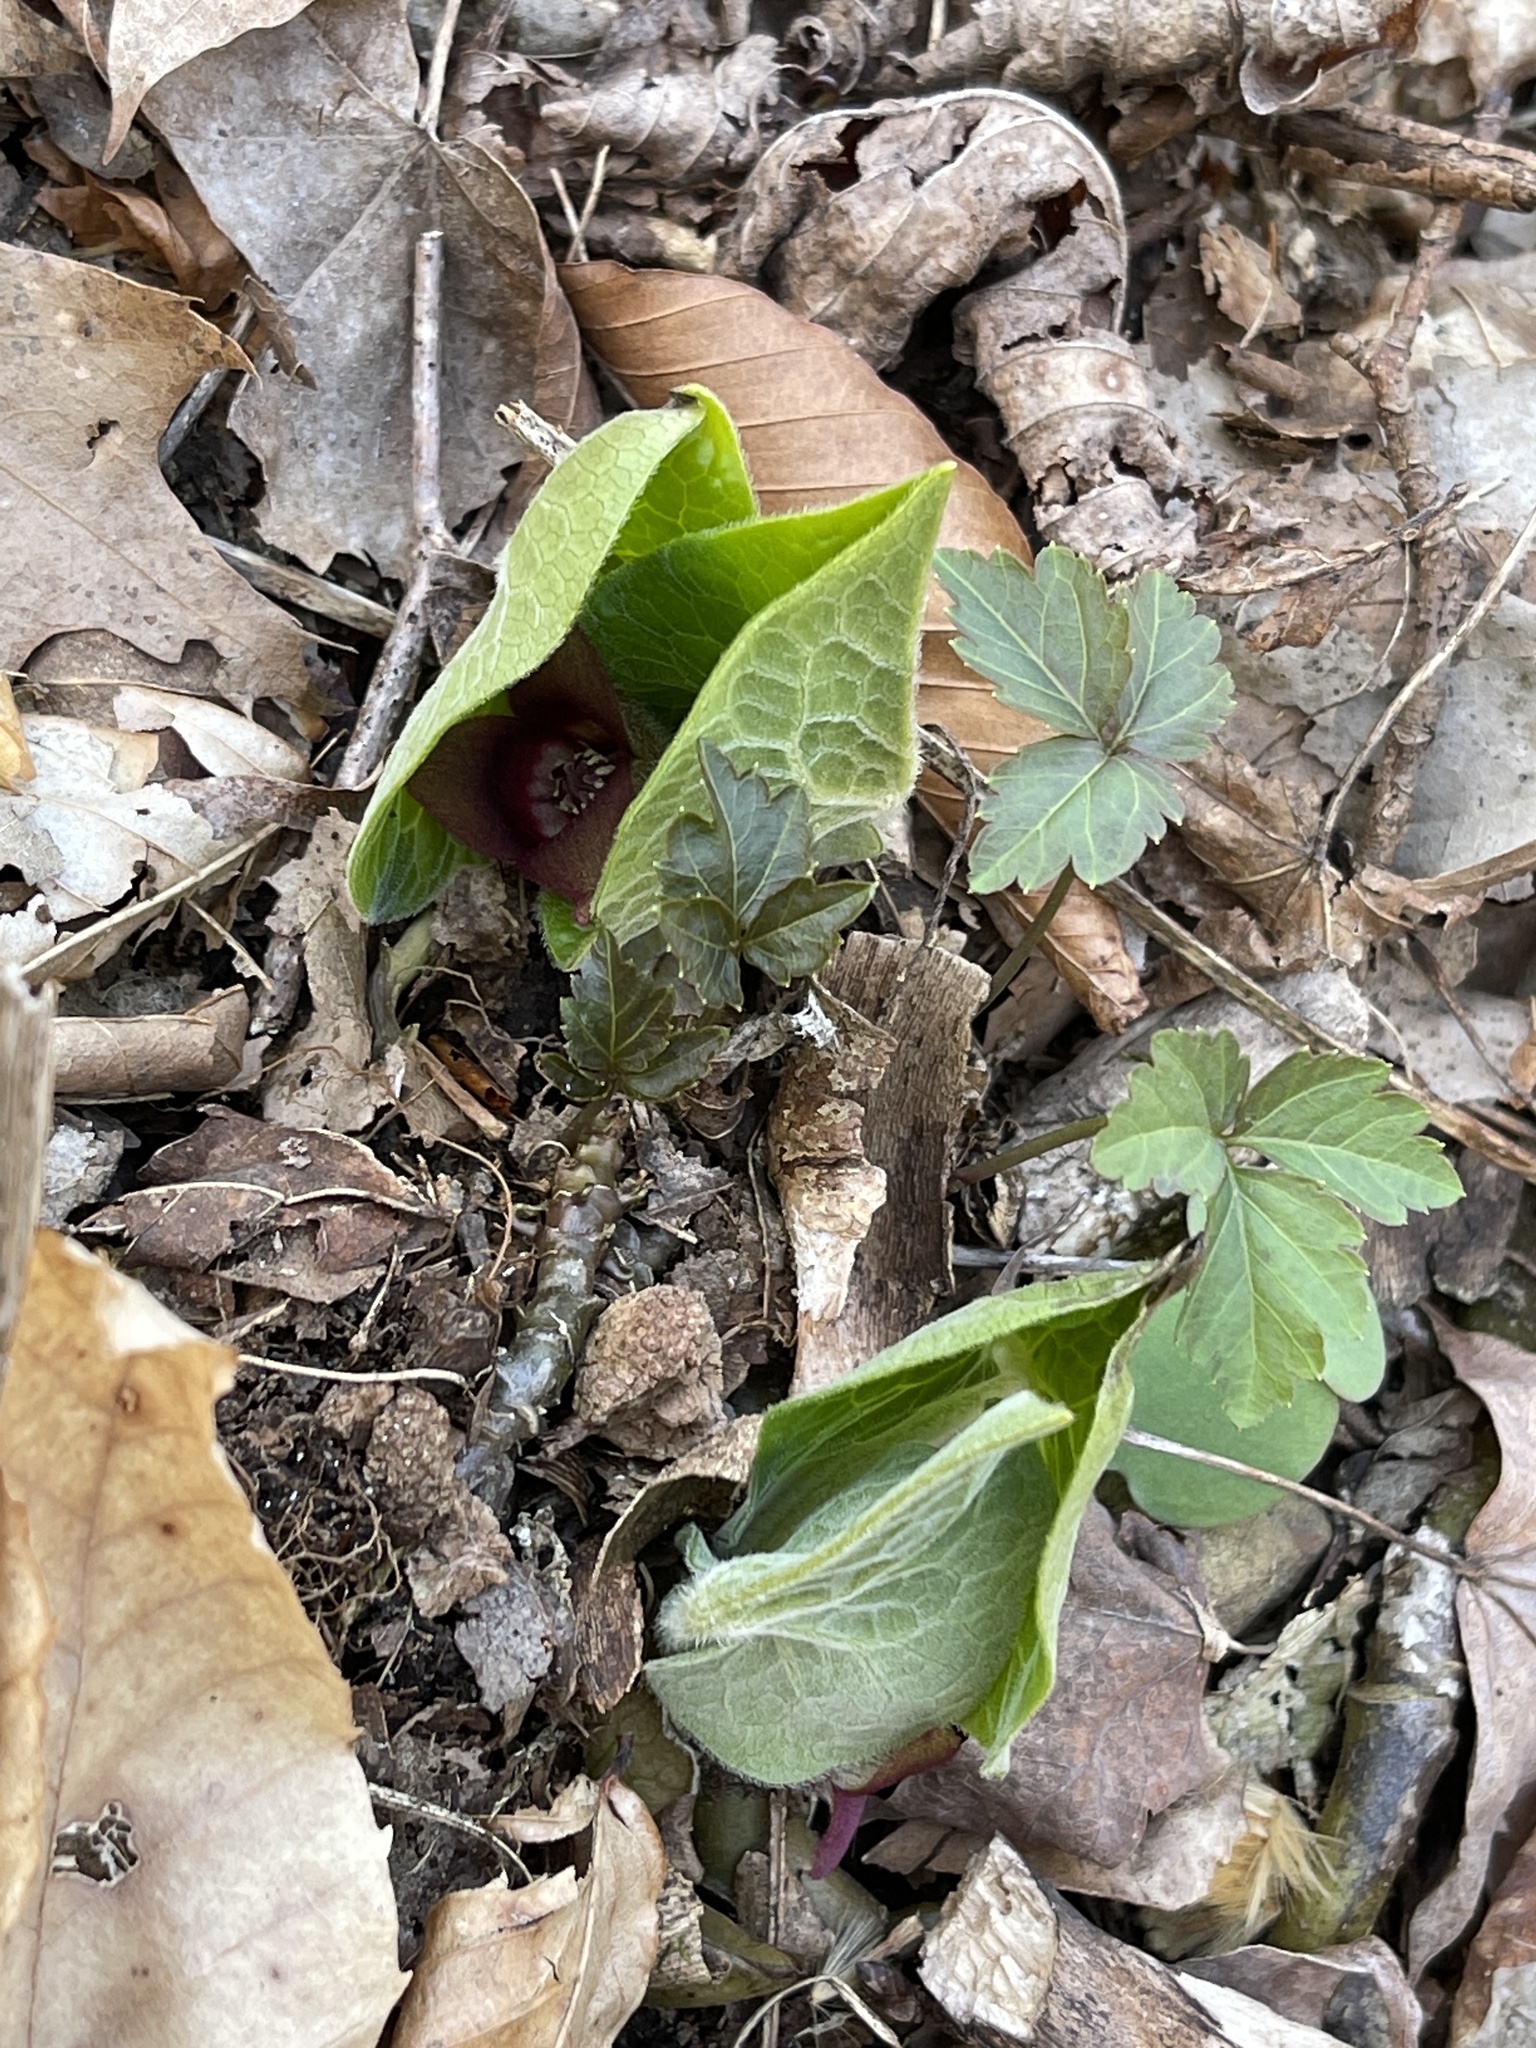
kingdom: Plantae
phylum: Tracheophyta
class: Magnoliopsida
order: Piperales
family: Aristolochiaceae
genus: Asarum
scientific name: Asarum canadense
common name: Wild ginger
